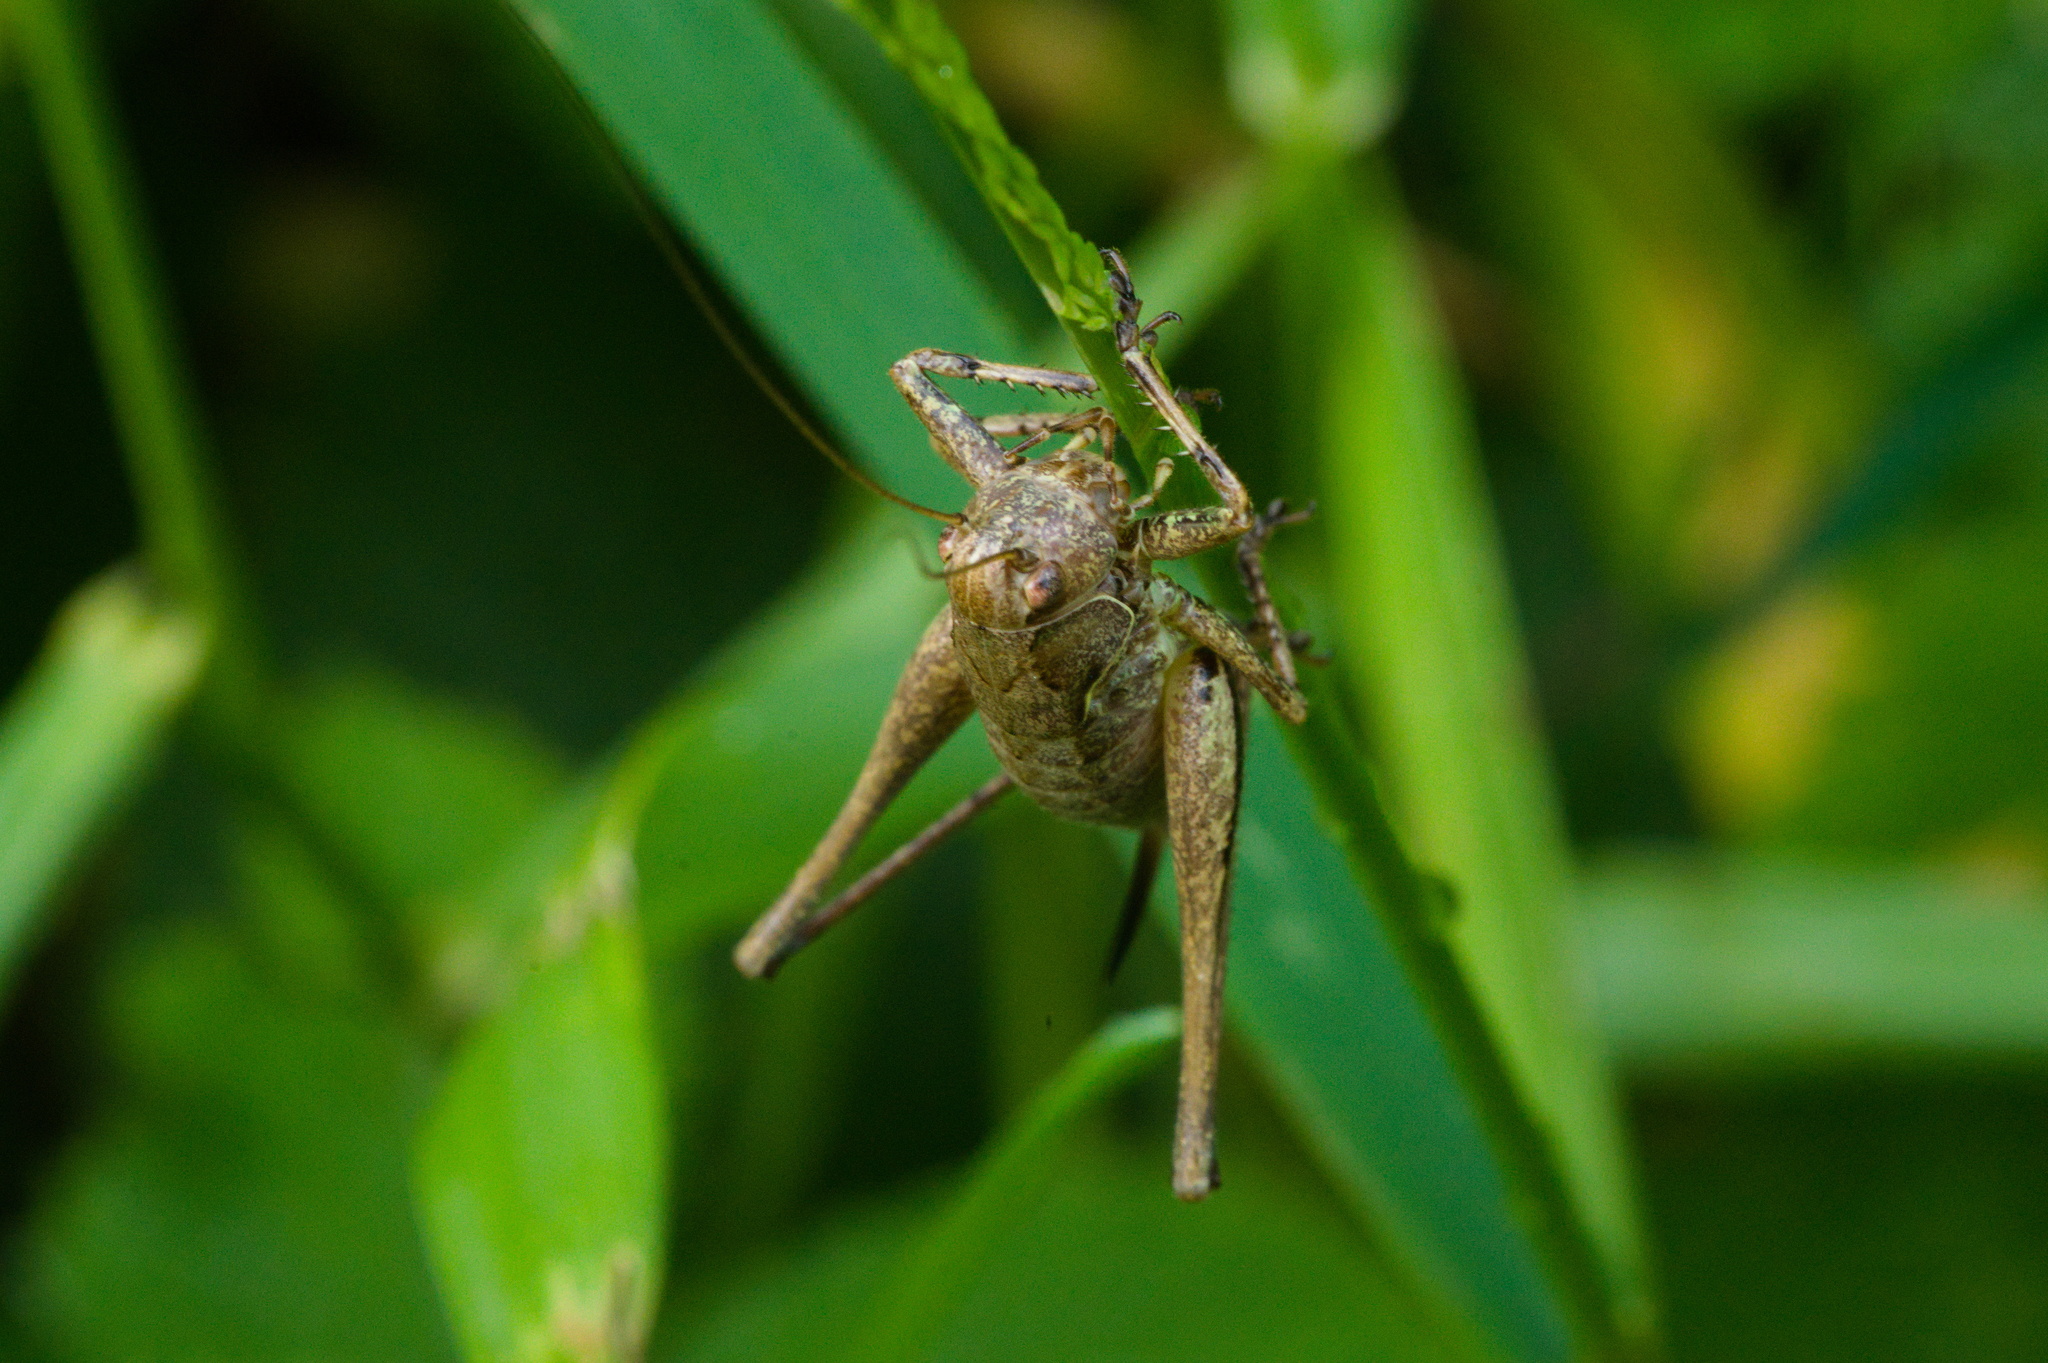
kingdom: Animalia
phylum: Arthropoda
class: Insecta
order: Orthoptera
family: Tettigoniidae
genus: Pholidoptera
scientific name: Pholidoptera griseoaptera
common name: Dark bush-cricket
